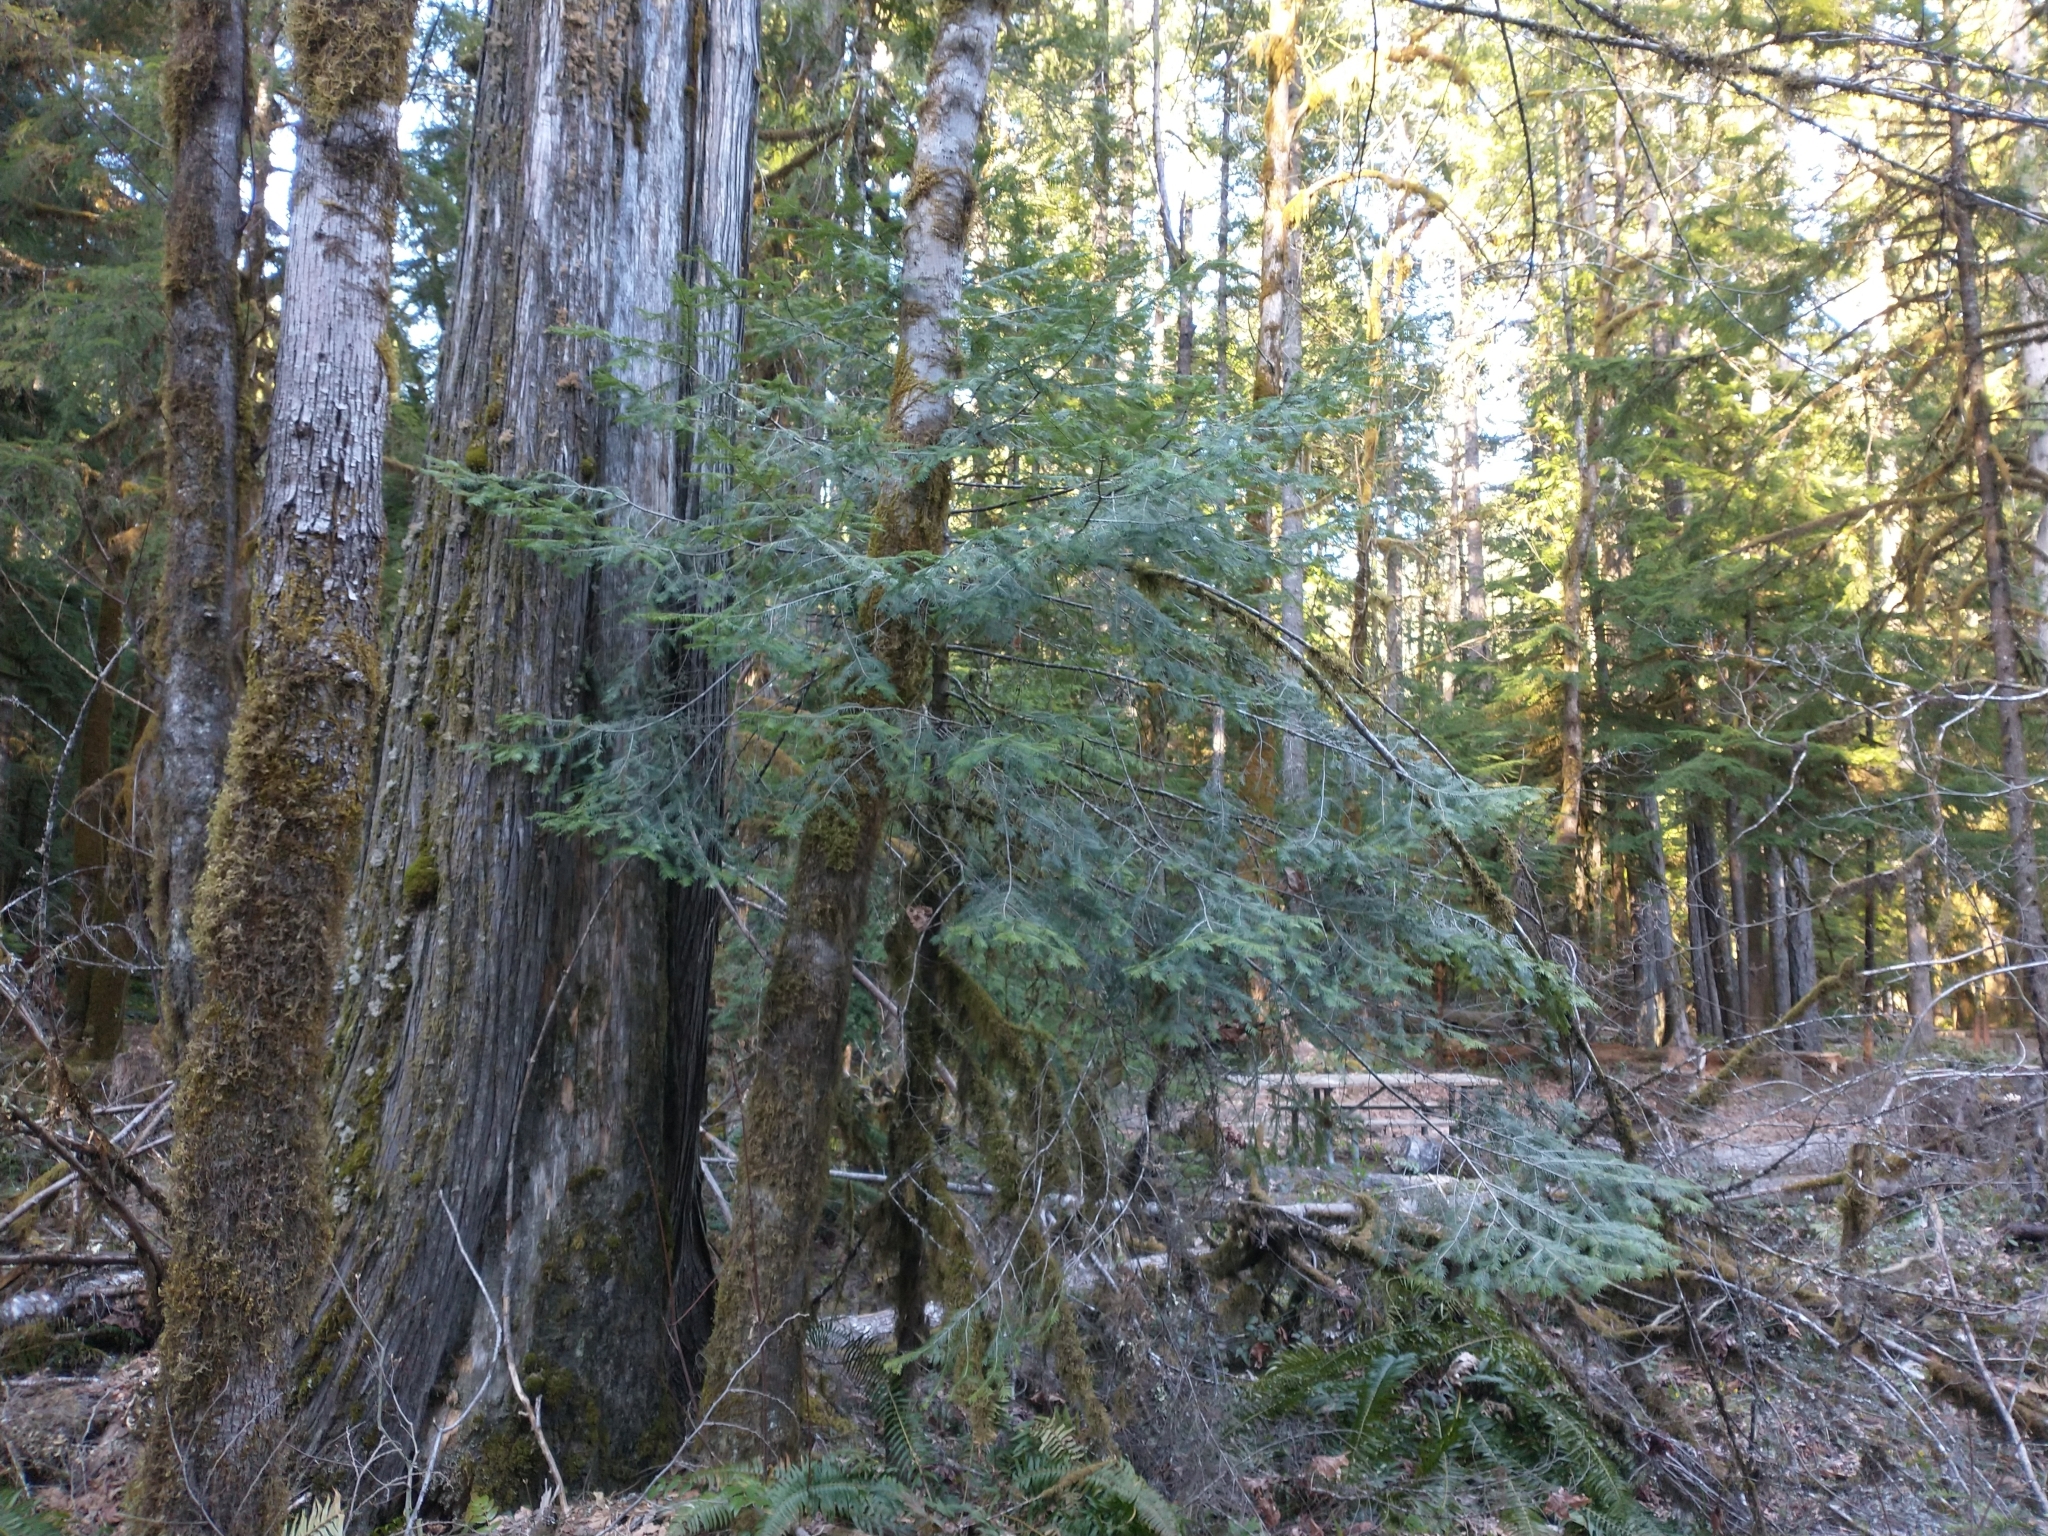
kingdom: Plantae
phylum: Tracheophyta
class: Pinopsida
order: Pinales
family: Pinaceae
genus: Abies
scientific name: Abies grandis
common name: Giant fir
